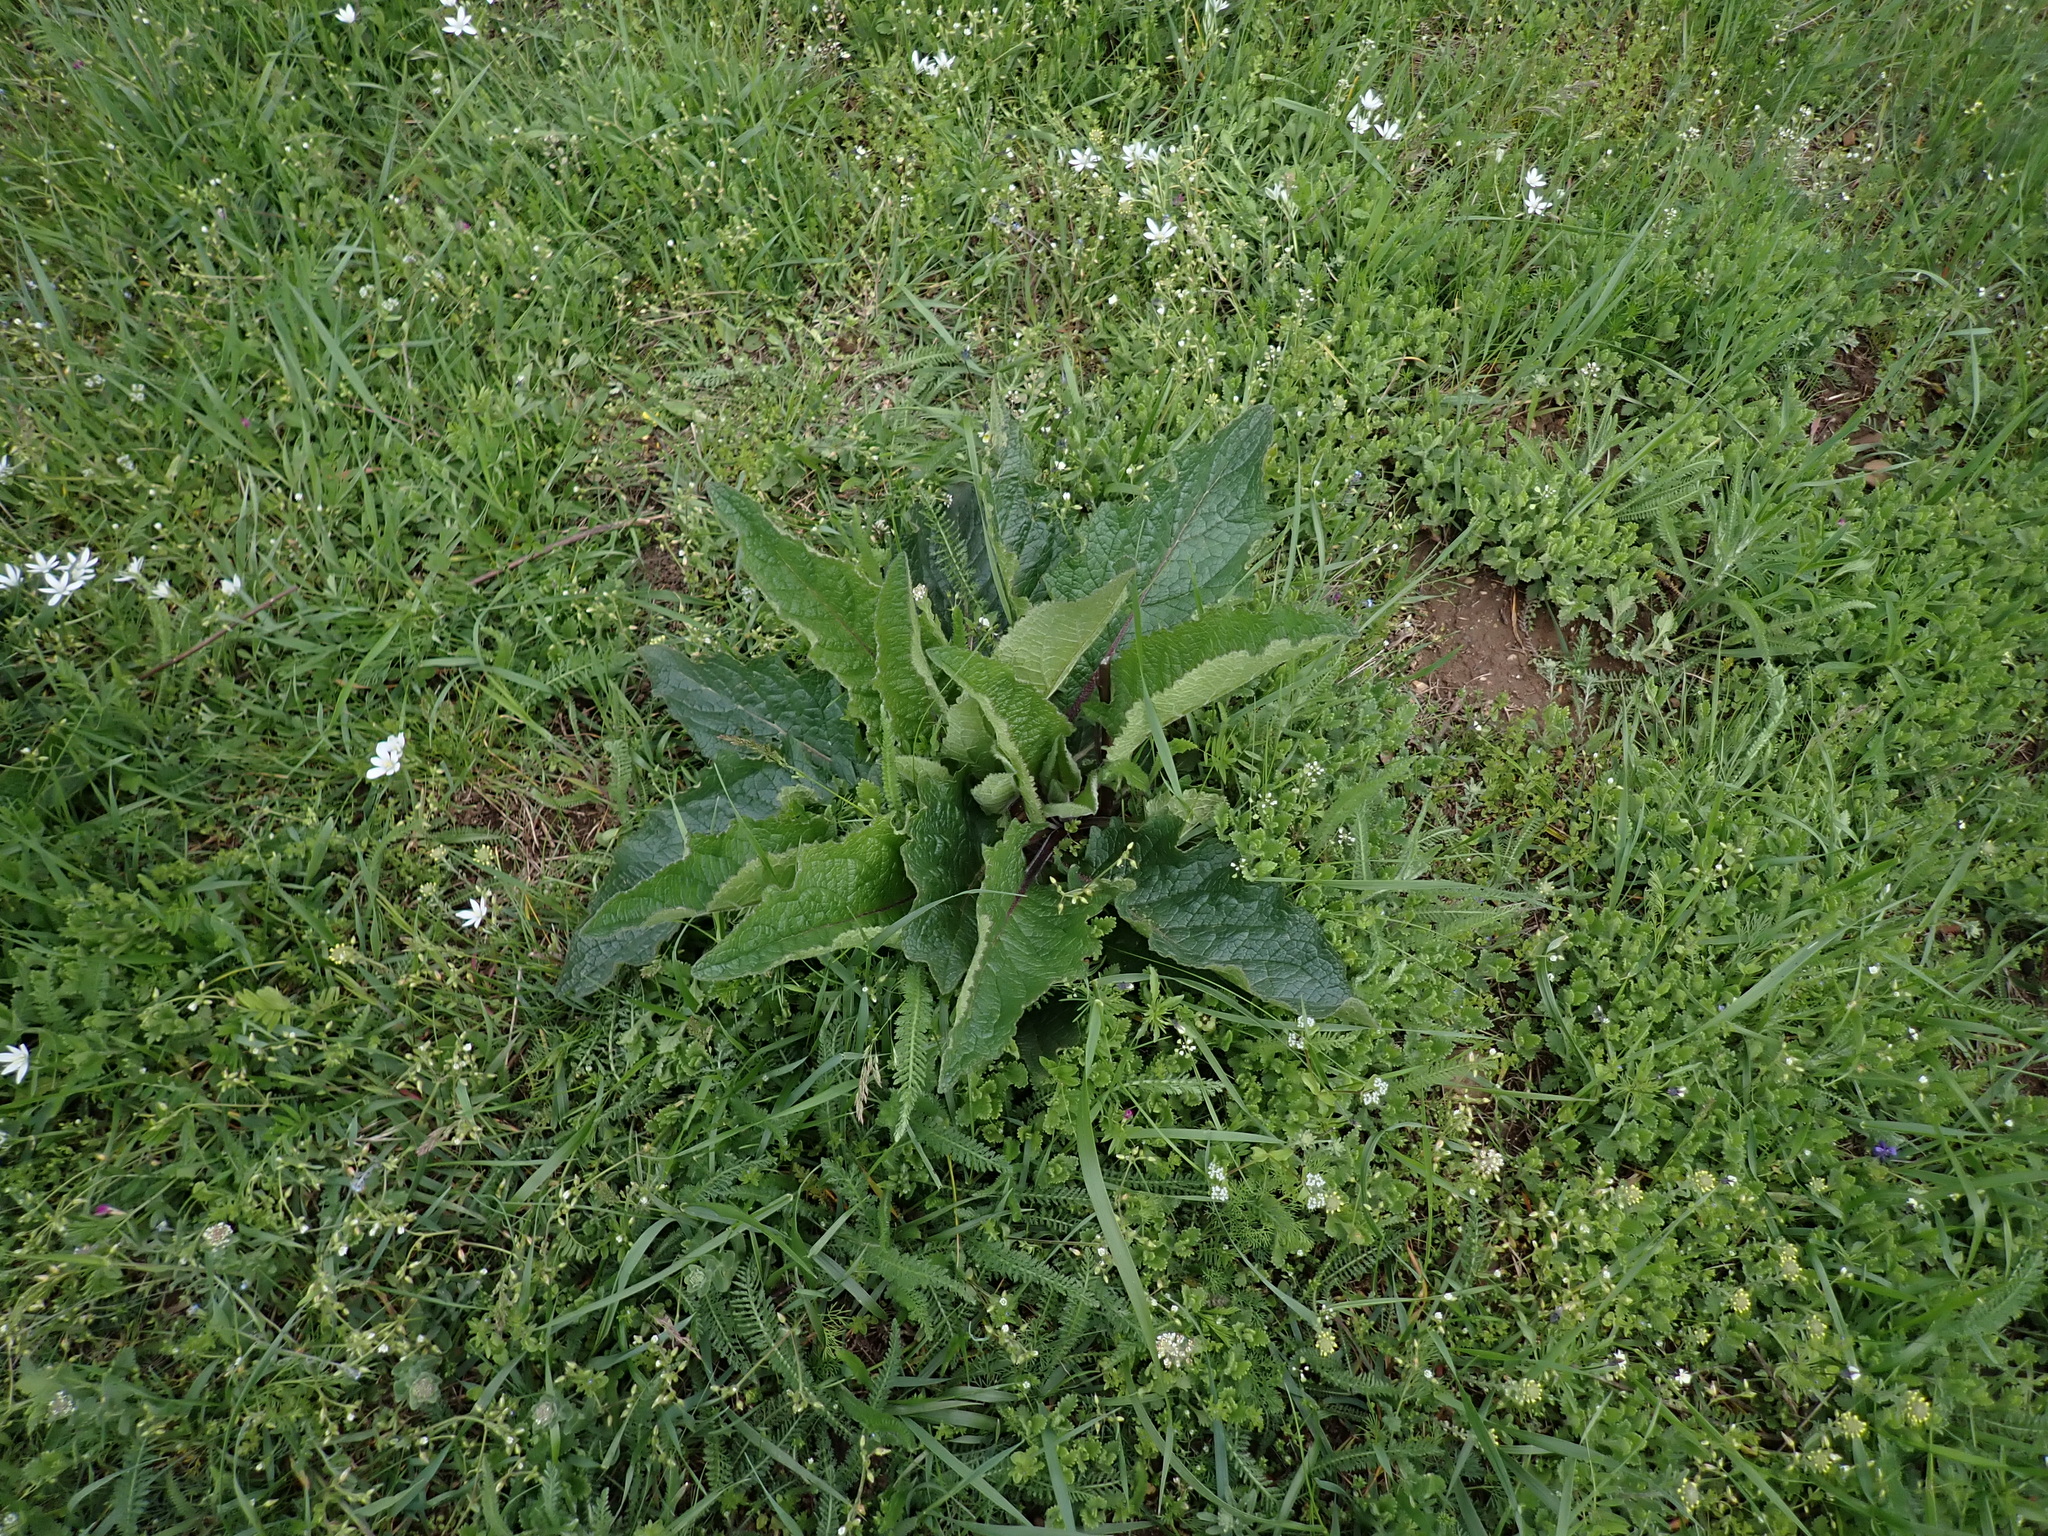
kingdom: Plantae
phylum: Tracheophyta
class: Magnoliopsida
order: Lamiales
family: Scrophulariaceae
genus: Verbascum
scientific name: Verbascum chaixii
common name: Nettle-leaved mullein
